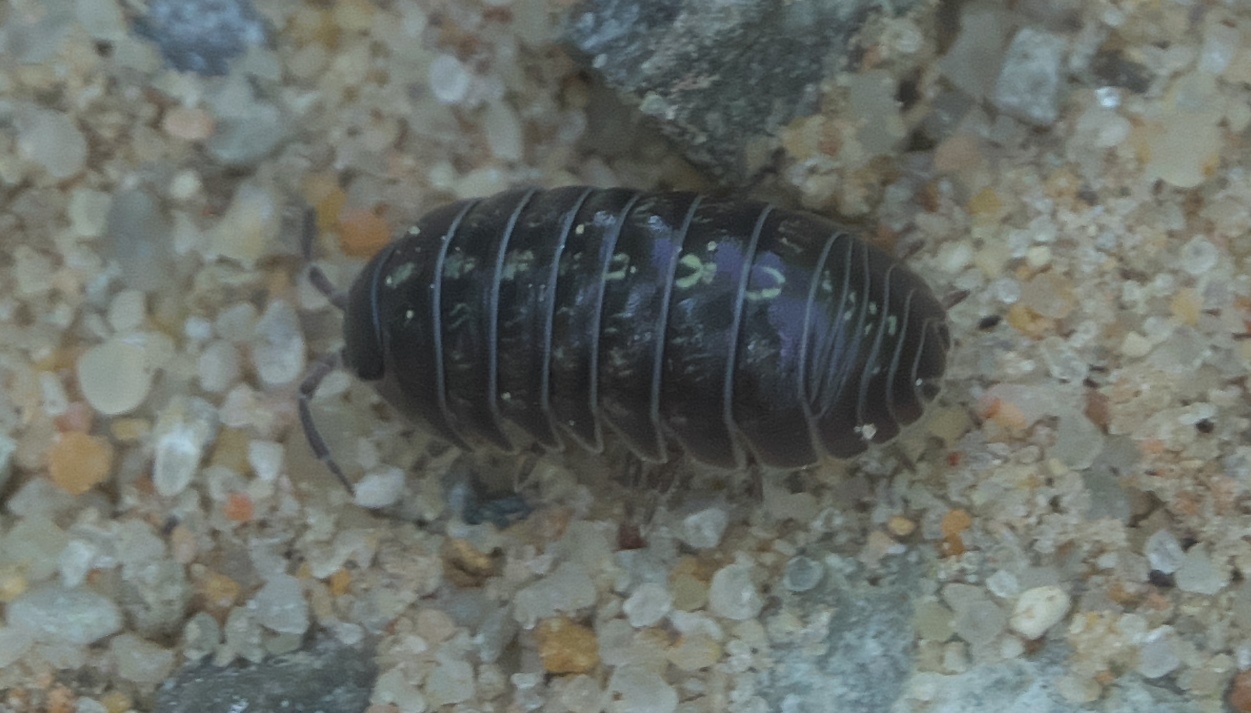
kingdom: Animalia
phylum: Arthropoda
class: Malacostraca
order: Isopoda
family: Armadillidiidae
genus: Armadillidium
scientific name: Armadillidium vulgare
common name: Common pill woodlouse
